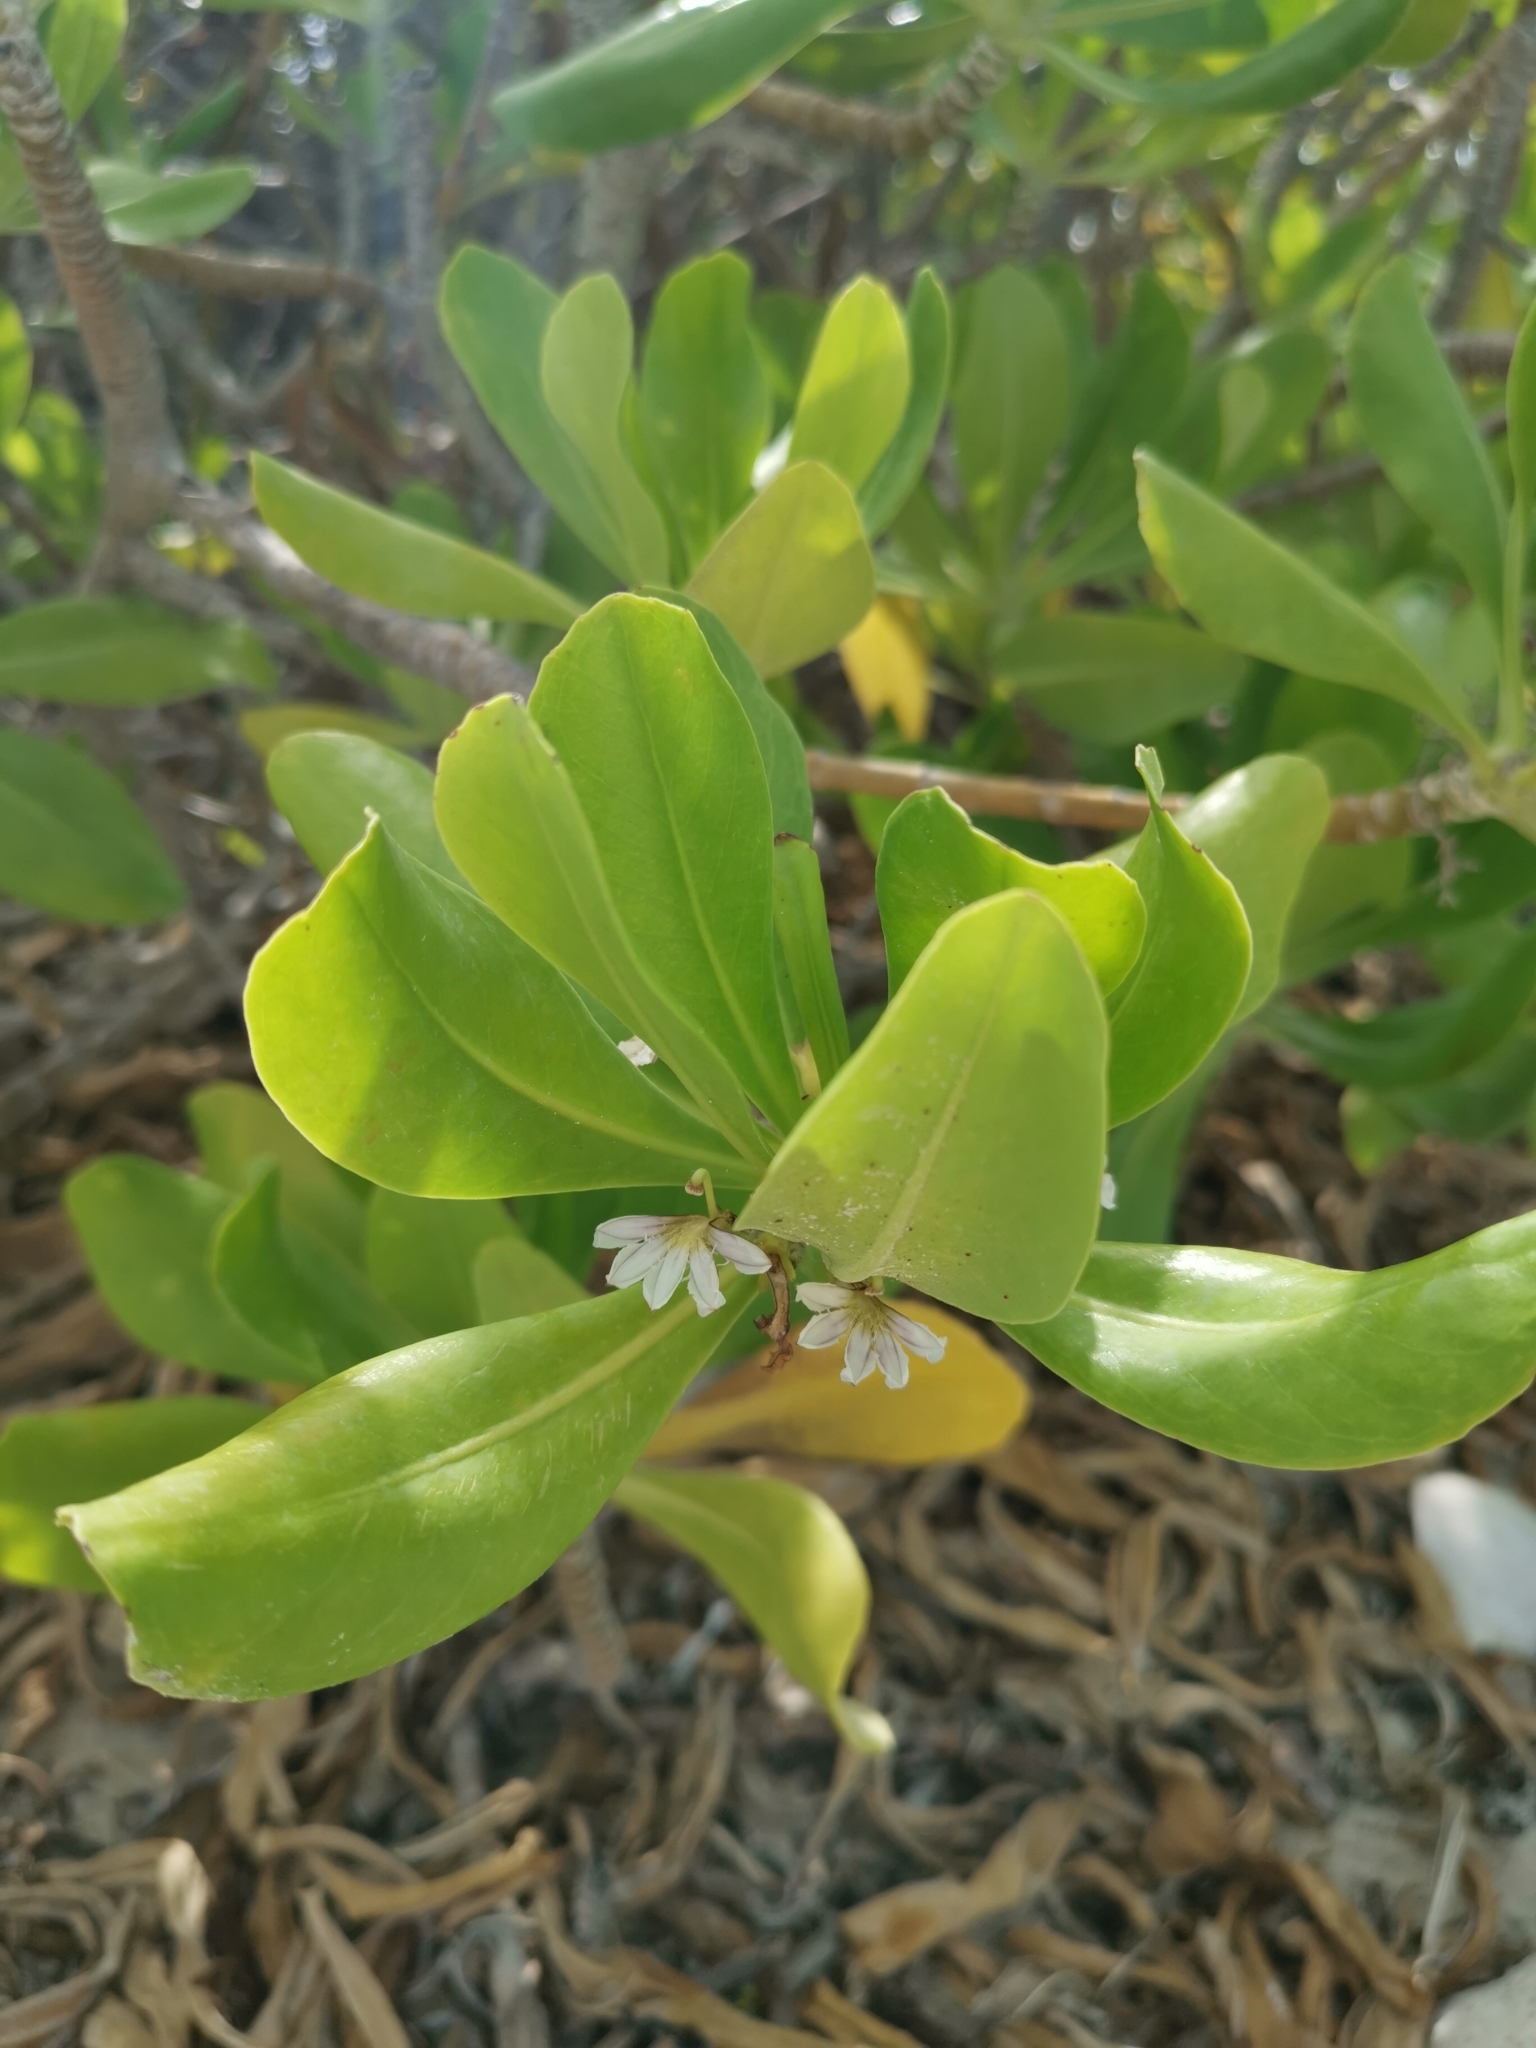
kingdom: Plantae
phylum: Tracheophyta
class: Magnoliopsida
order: Asterales
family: Goodeniaceae
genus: Scaevola
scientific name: Scaevola taccada
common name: Sea lettucetree
